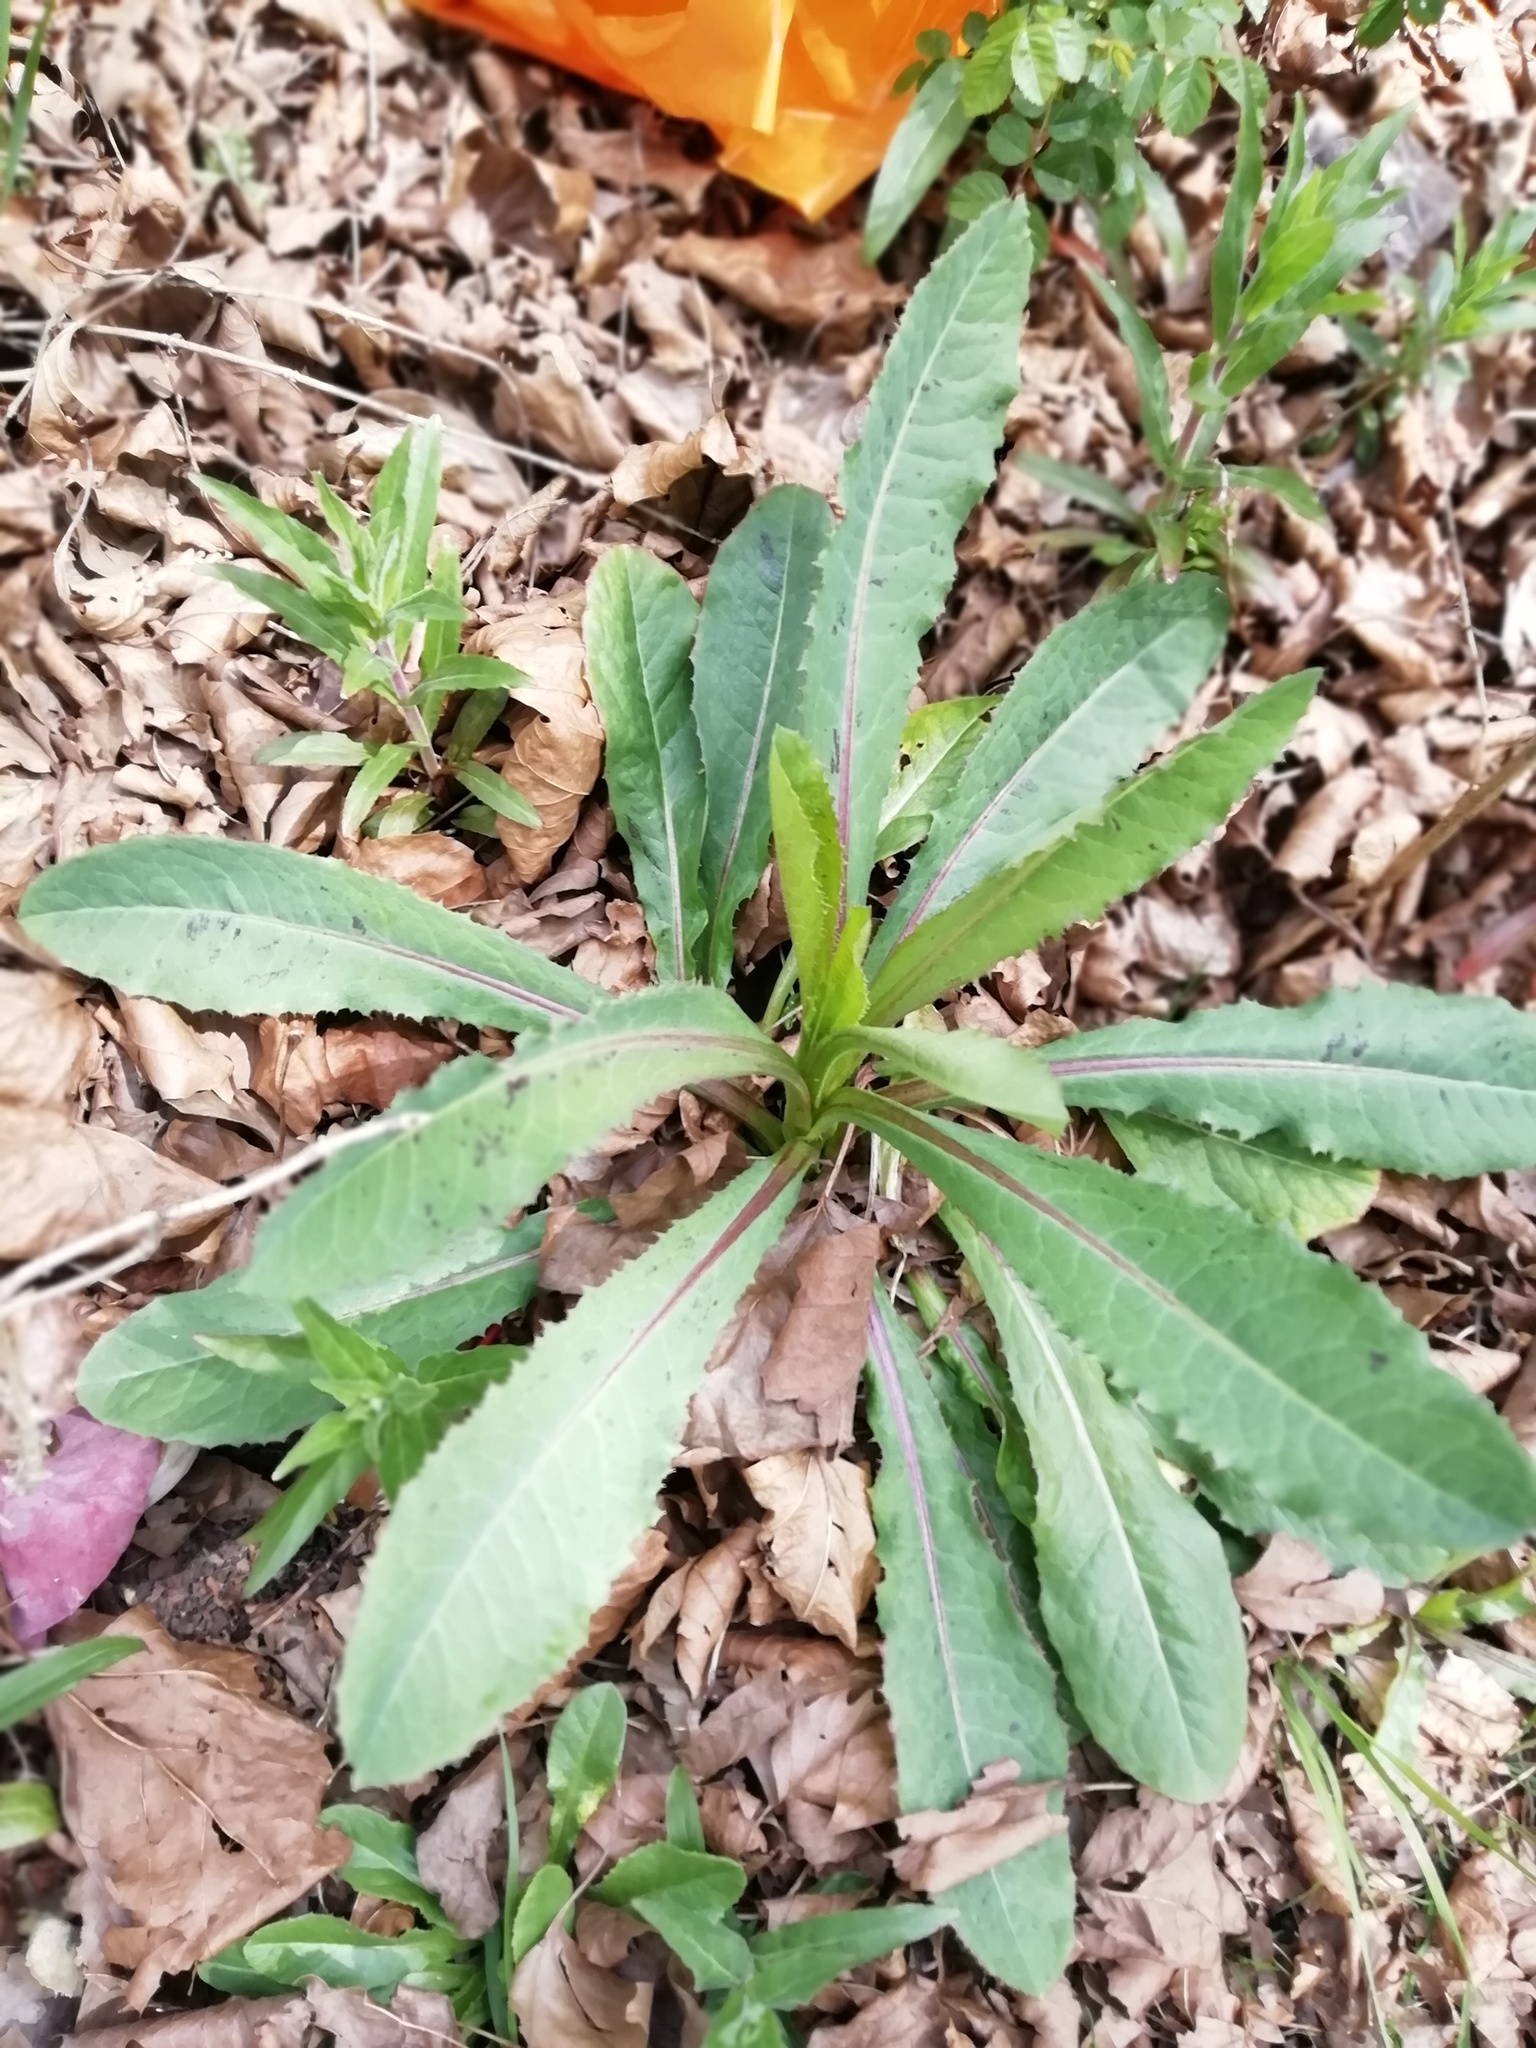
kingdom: Plantae
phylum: Tracheophyta
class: Magnoliopsida
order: Asterales
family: Asteraceae
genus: Lactuca
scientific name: Lactuca serriola
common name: Prickly lettuce
